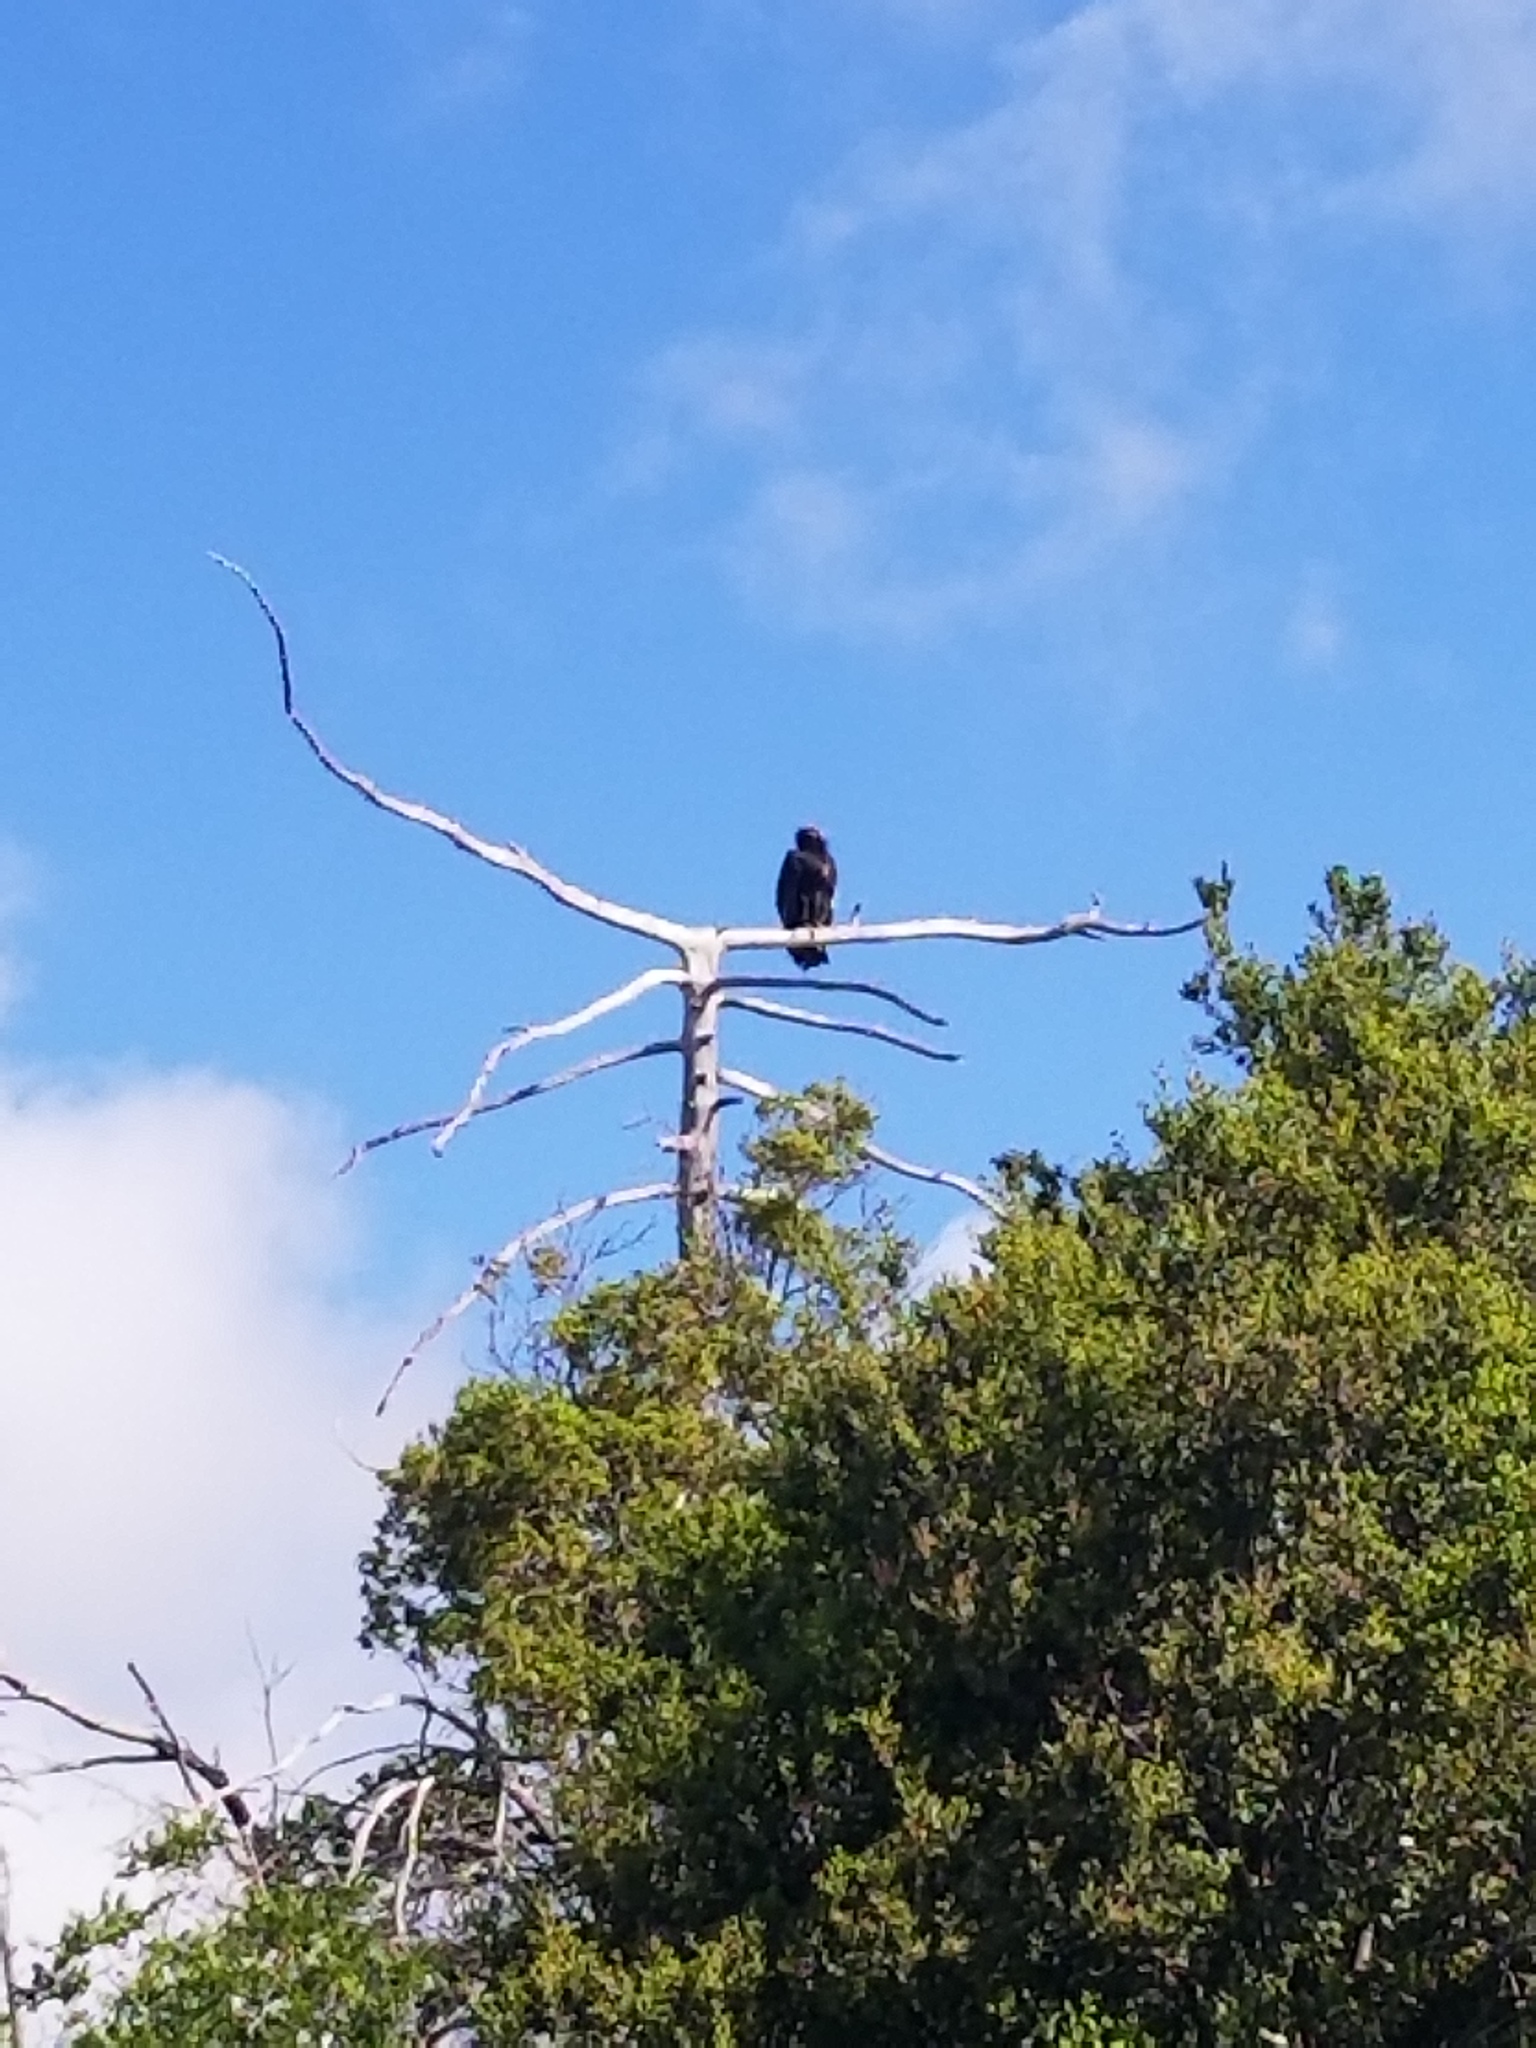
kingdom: Animalia
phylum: Chordata
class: Aves
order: Accipitriformes
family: Cathartidae
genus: Gymnogyps
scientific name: Gymnogyps californianus
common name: California condor
